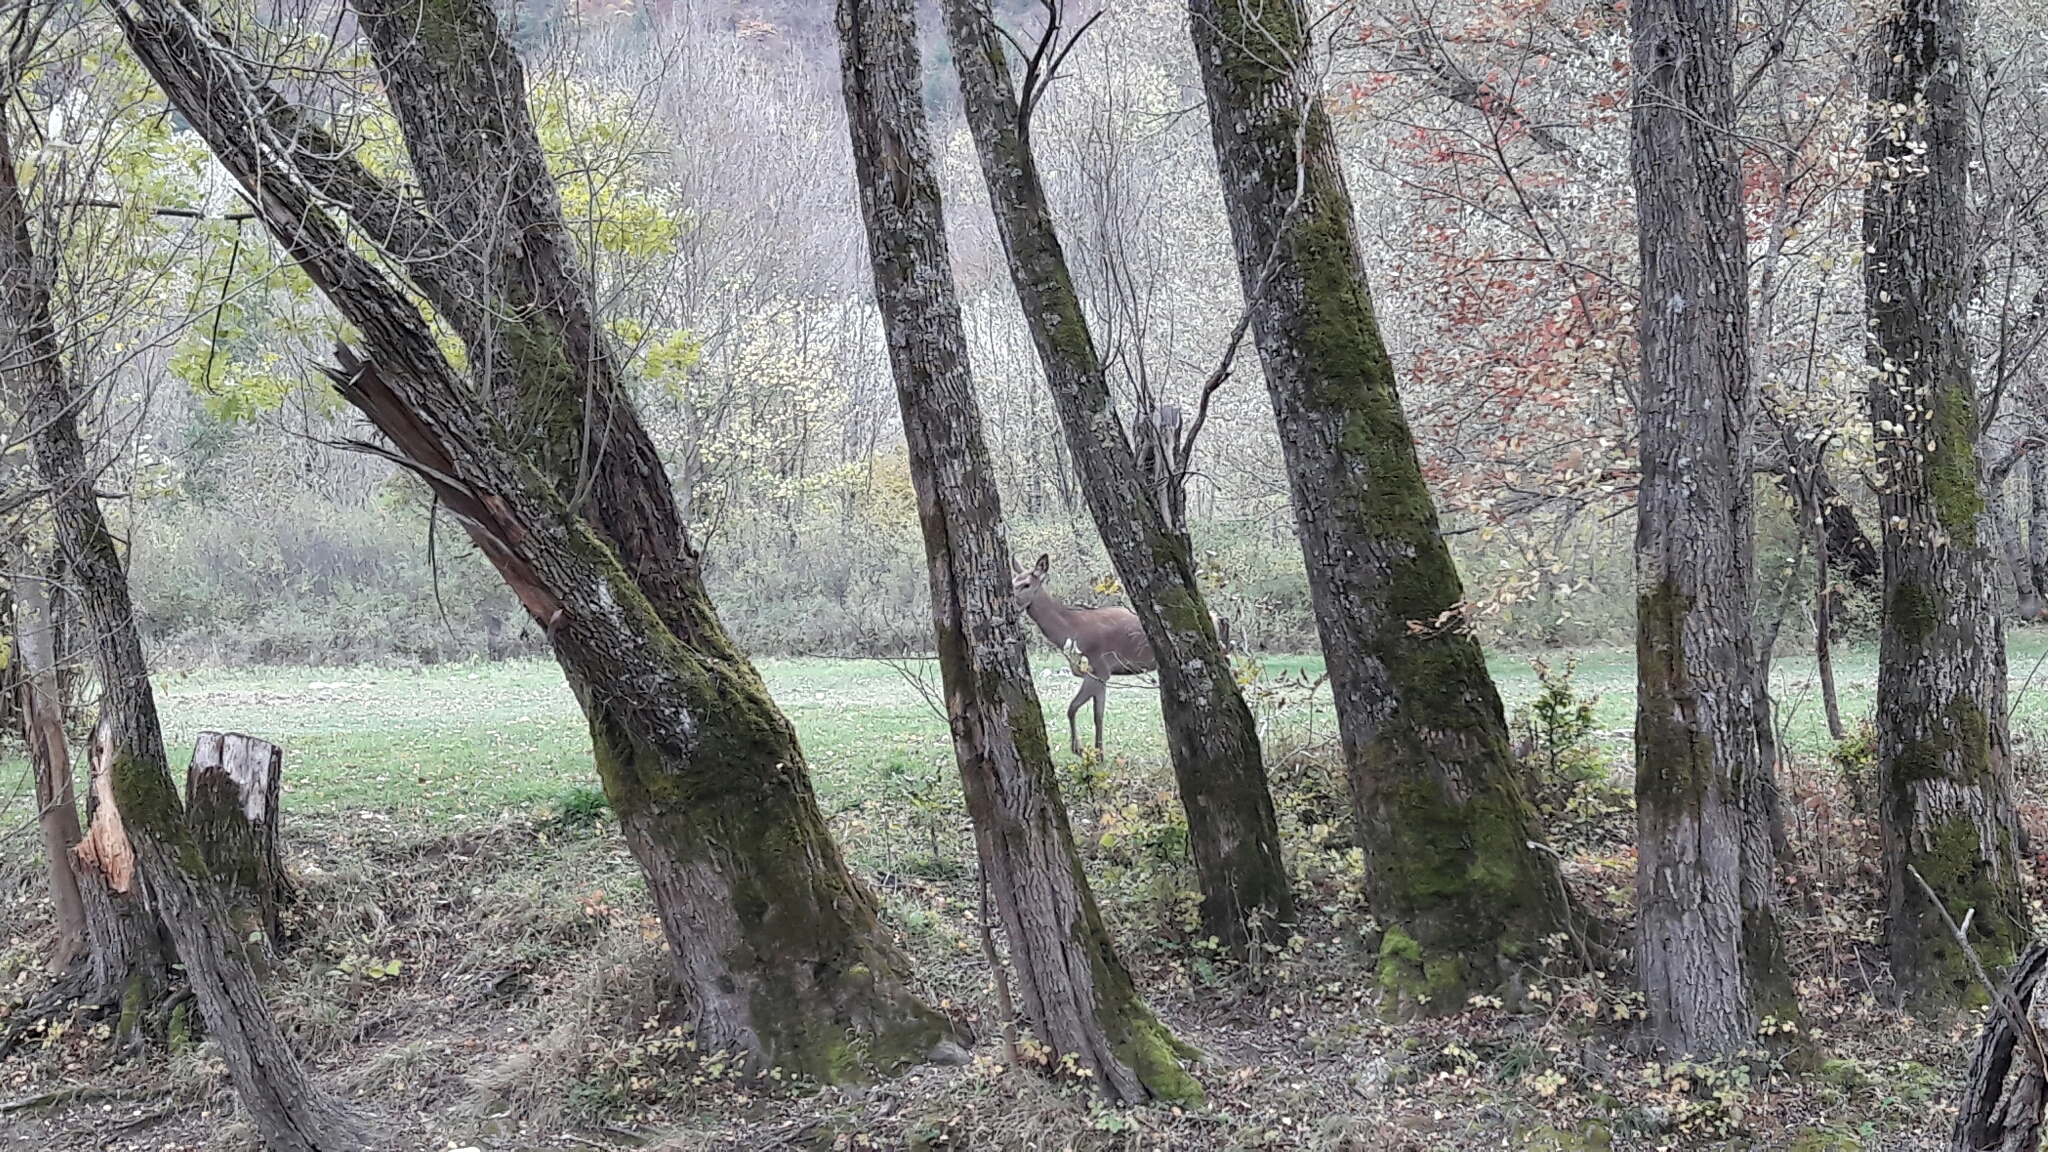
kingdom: Animalia
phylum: Chordata
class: Mammalia
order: Artiodactyla
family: Cervidae
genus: Cervus
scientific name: Cervus elaphus
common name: Red deer
